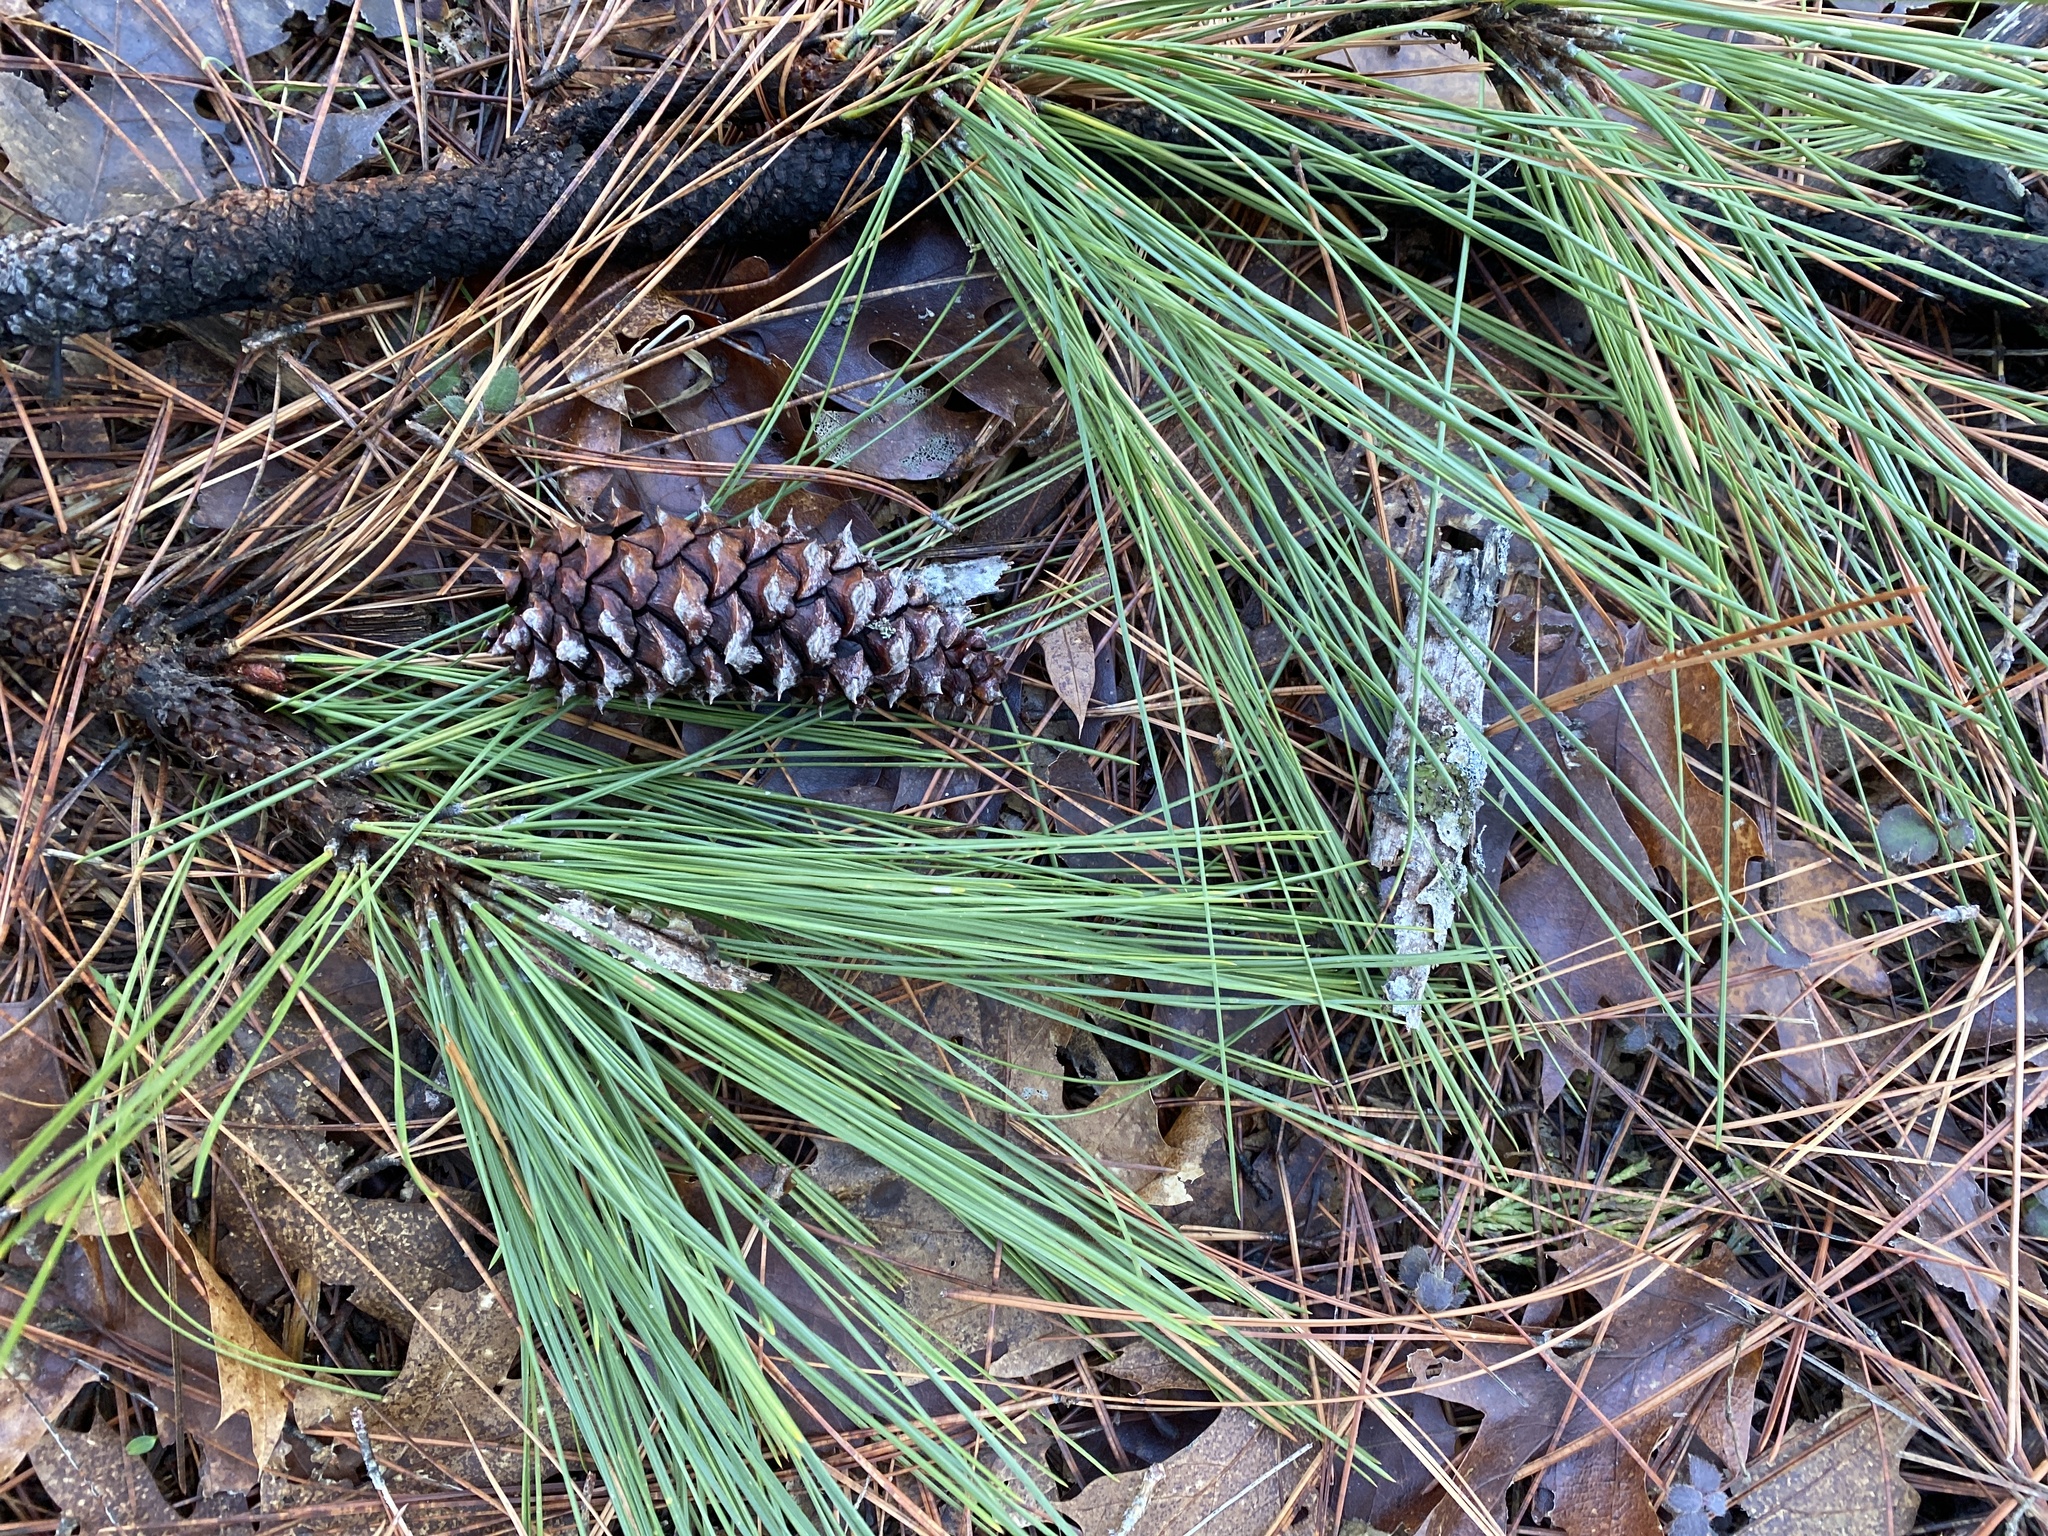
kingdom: Plantae
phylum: Tracheophyta
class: Pinopsida
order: Pinales
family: Pinaceae
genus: Pinus
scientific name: Pinus ponderosa
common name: Western yellow-pine
